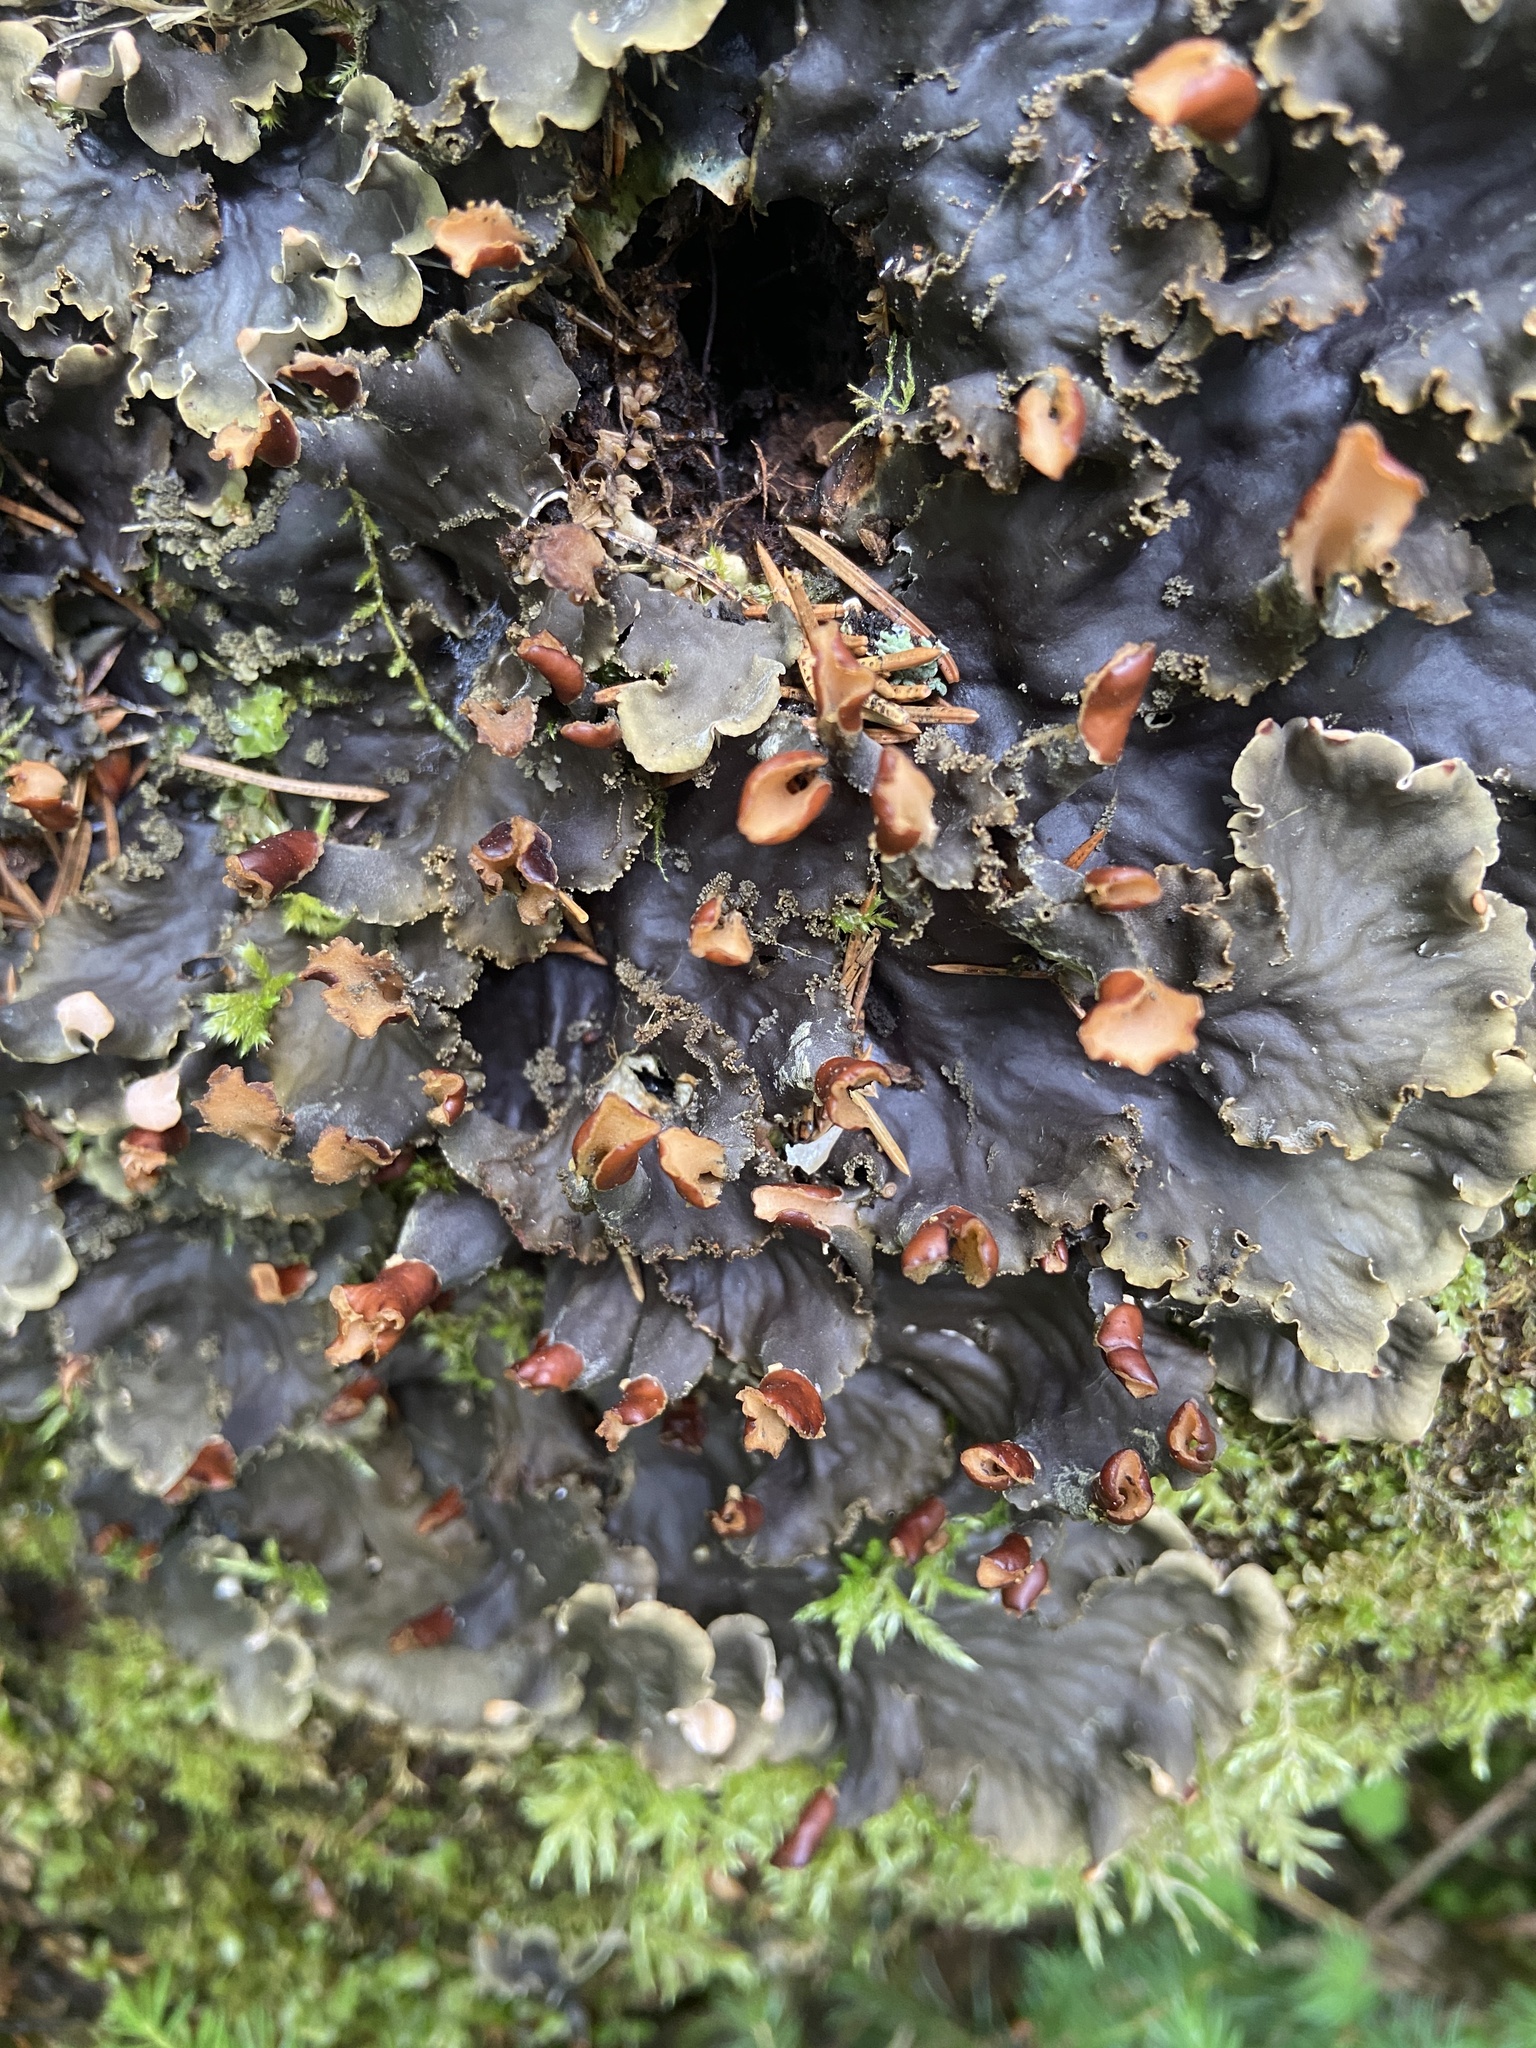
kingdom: Fungi
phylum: Ascomycota
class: Lecanoromycetes
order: Peltigerales
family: Peltigeraceae
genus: Peltigera
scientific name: Peltigera praetextata
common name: Scaly dog-lichen
